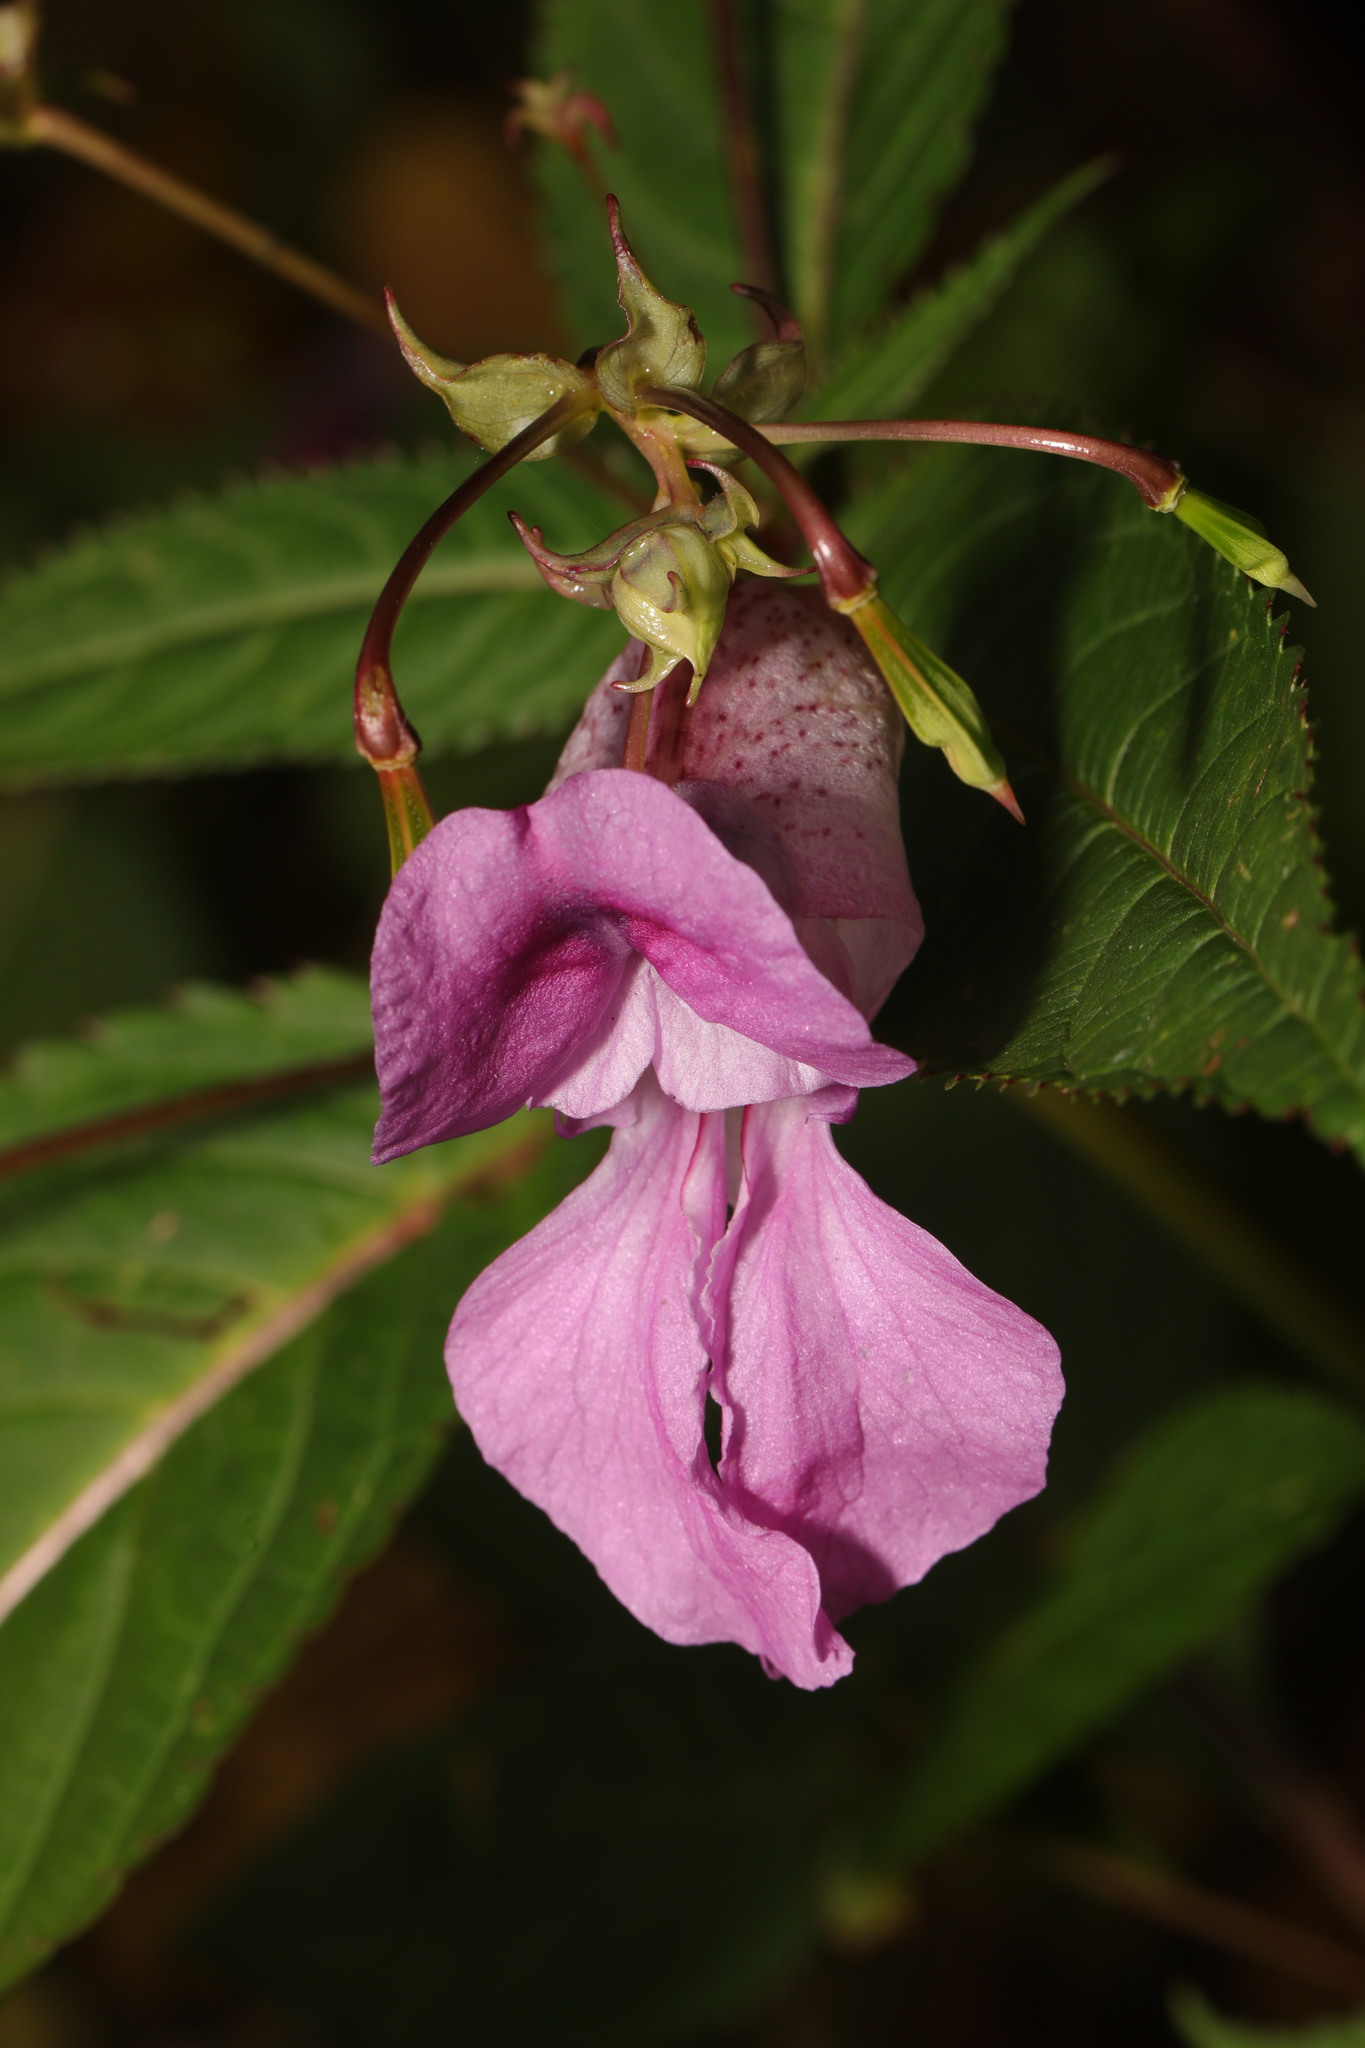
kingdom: Plantae
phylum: Tracheophyta
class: Magnoliopsida
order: Ericales
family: Balsaminaceae
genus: Impatiens
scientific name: Impatiens glandulifera
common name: Himalayan balsam
